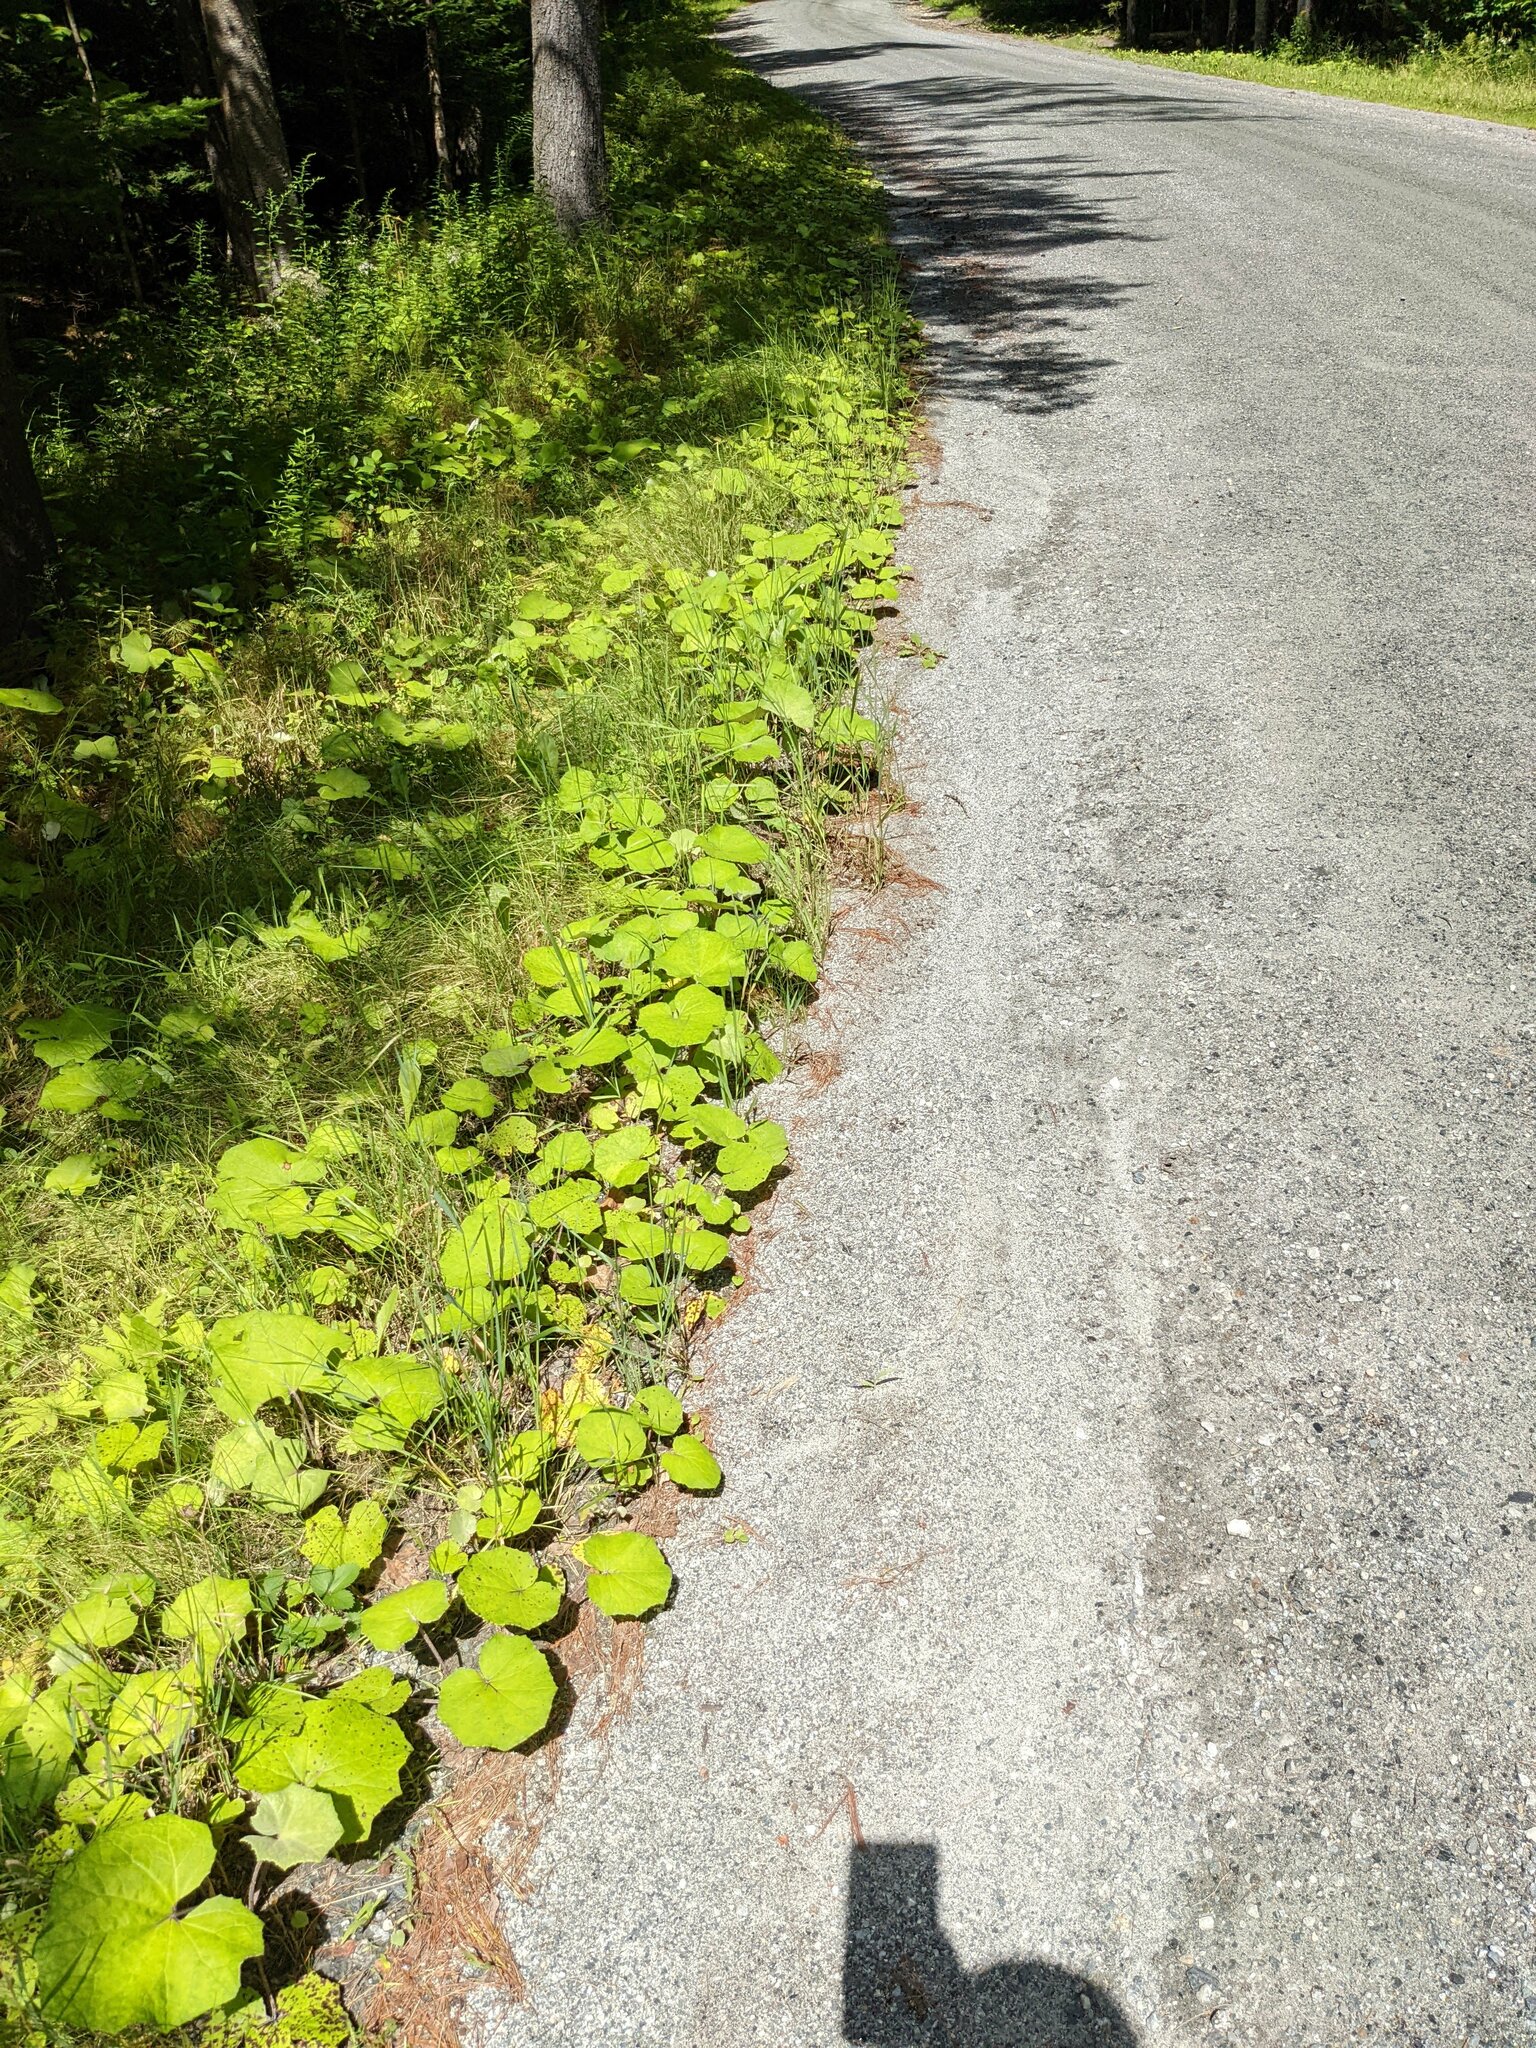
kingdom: Plantae
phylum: Tracheophyta
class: Magnoliopsida
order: Asterales
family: Asteraceae
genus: Tussilago
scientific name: Tussilago farfara
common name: Coltsfoot
